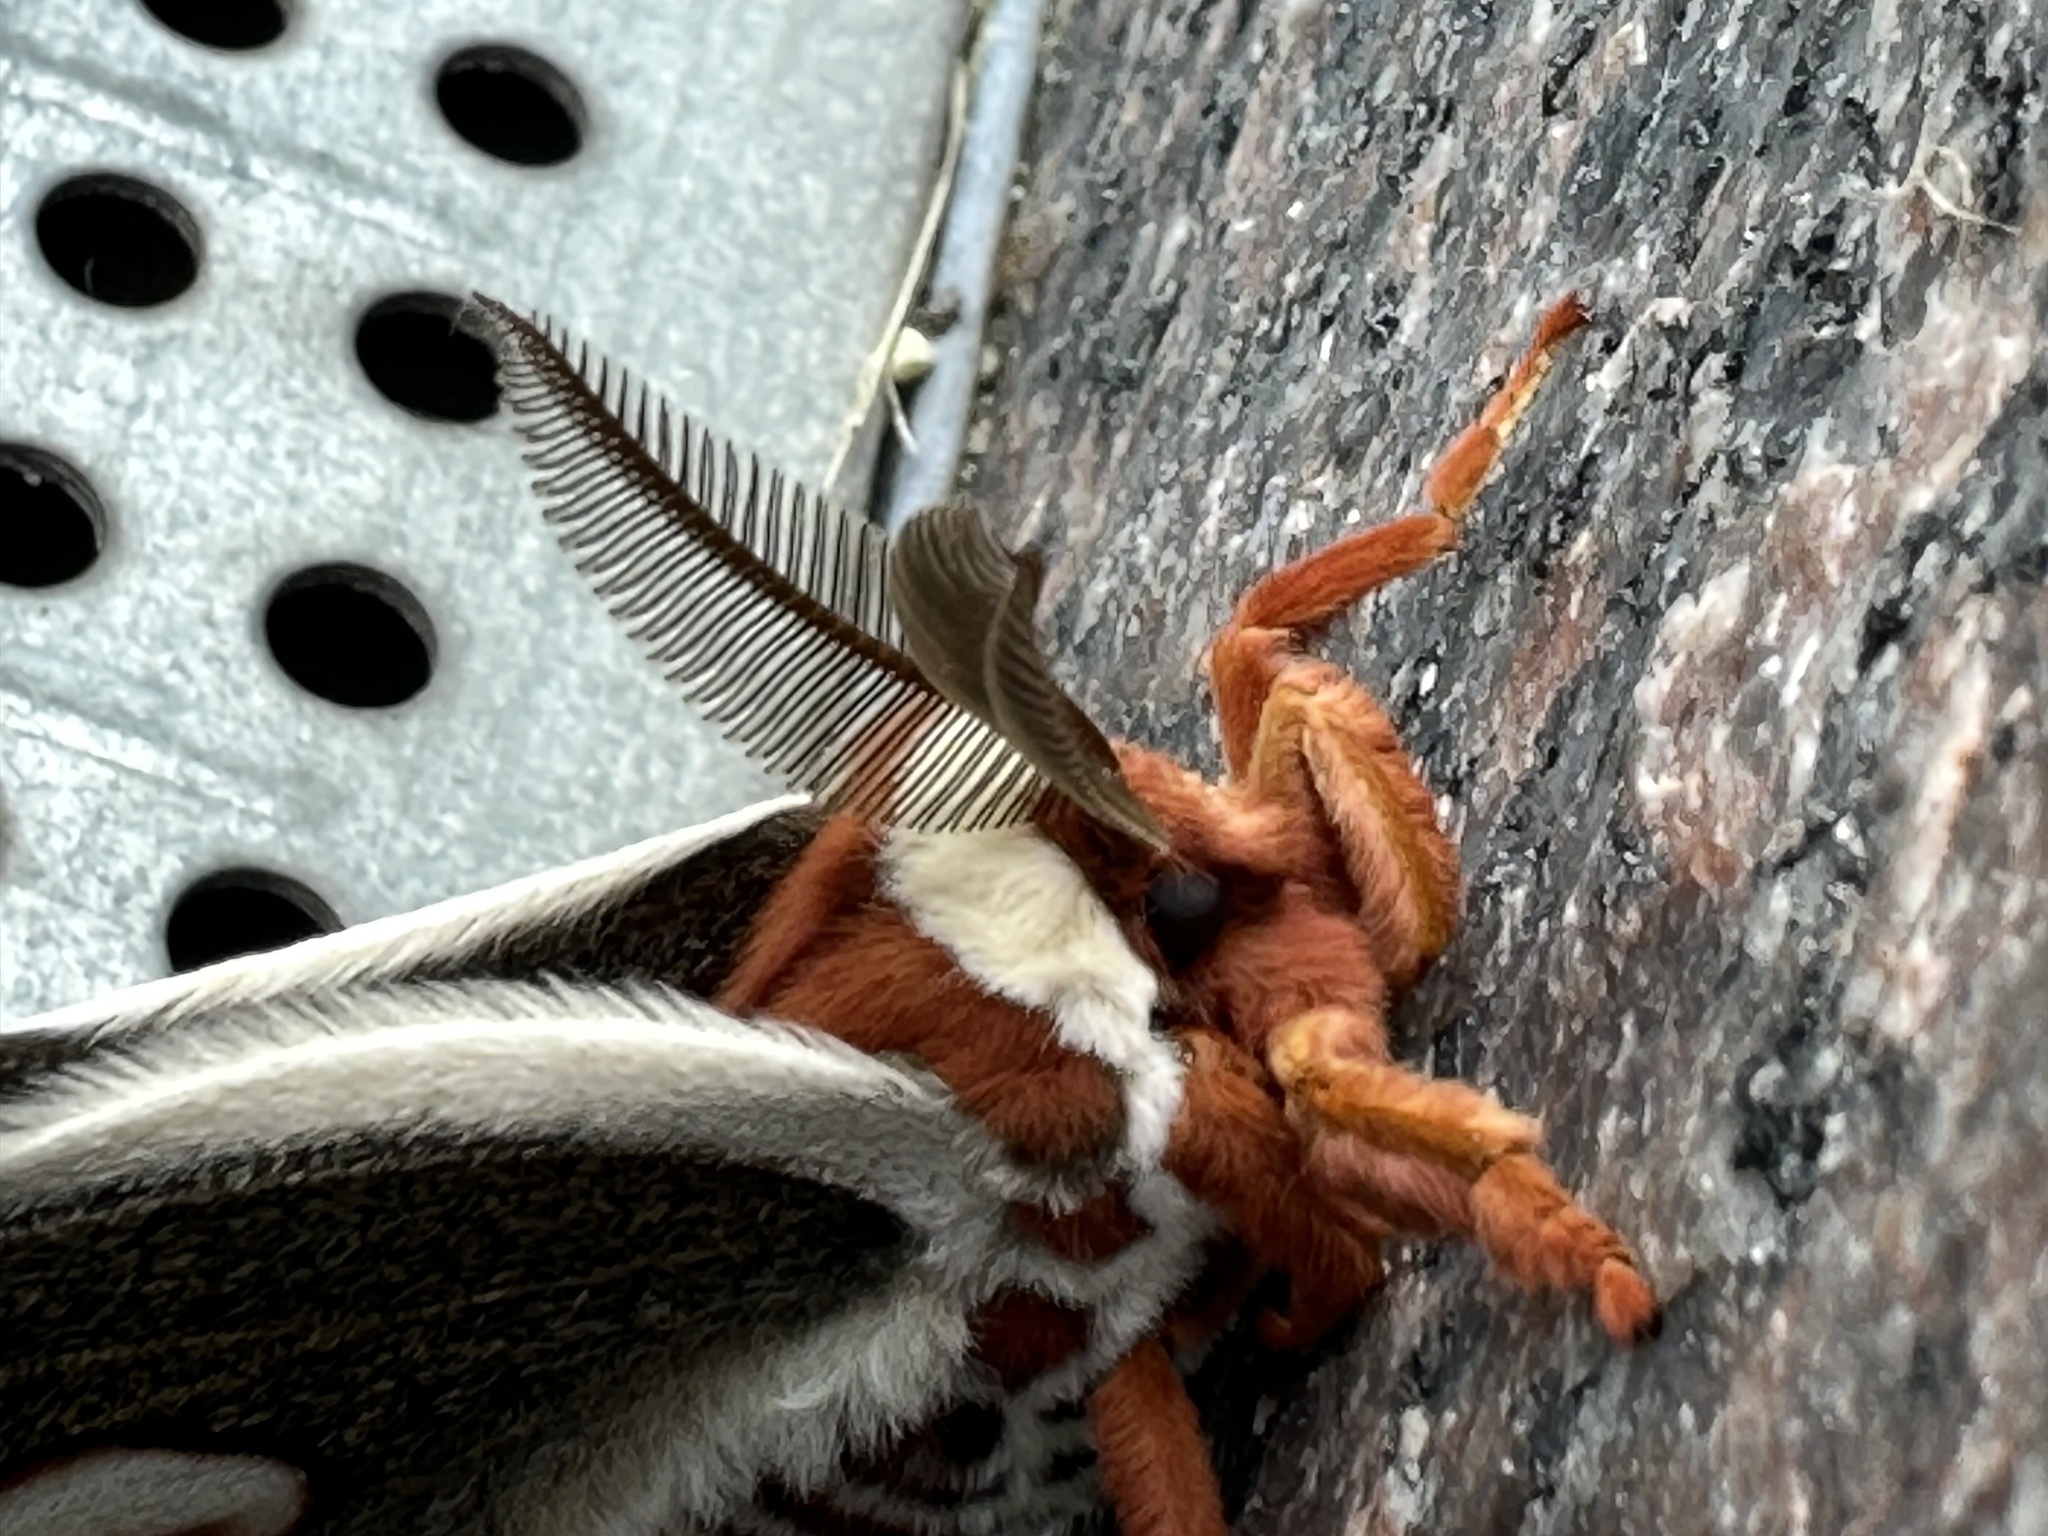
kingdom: Animalia
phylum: Arthropoda
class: Insecta
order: Lepidoptera
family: Saturniidae
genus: Hyalophora
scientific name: Hyalophora cecropia
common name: Cecropia silkmoth
